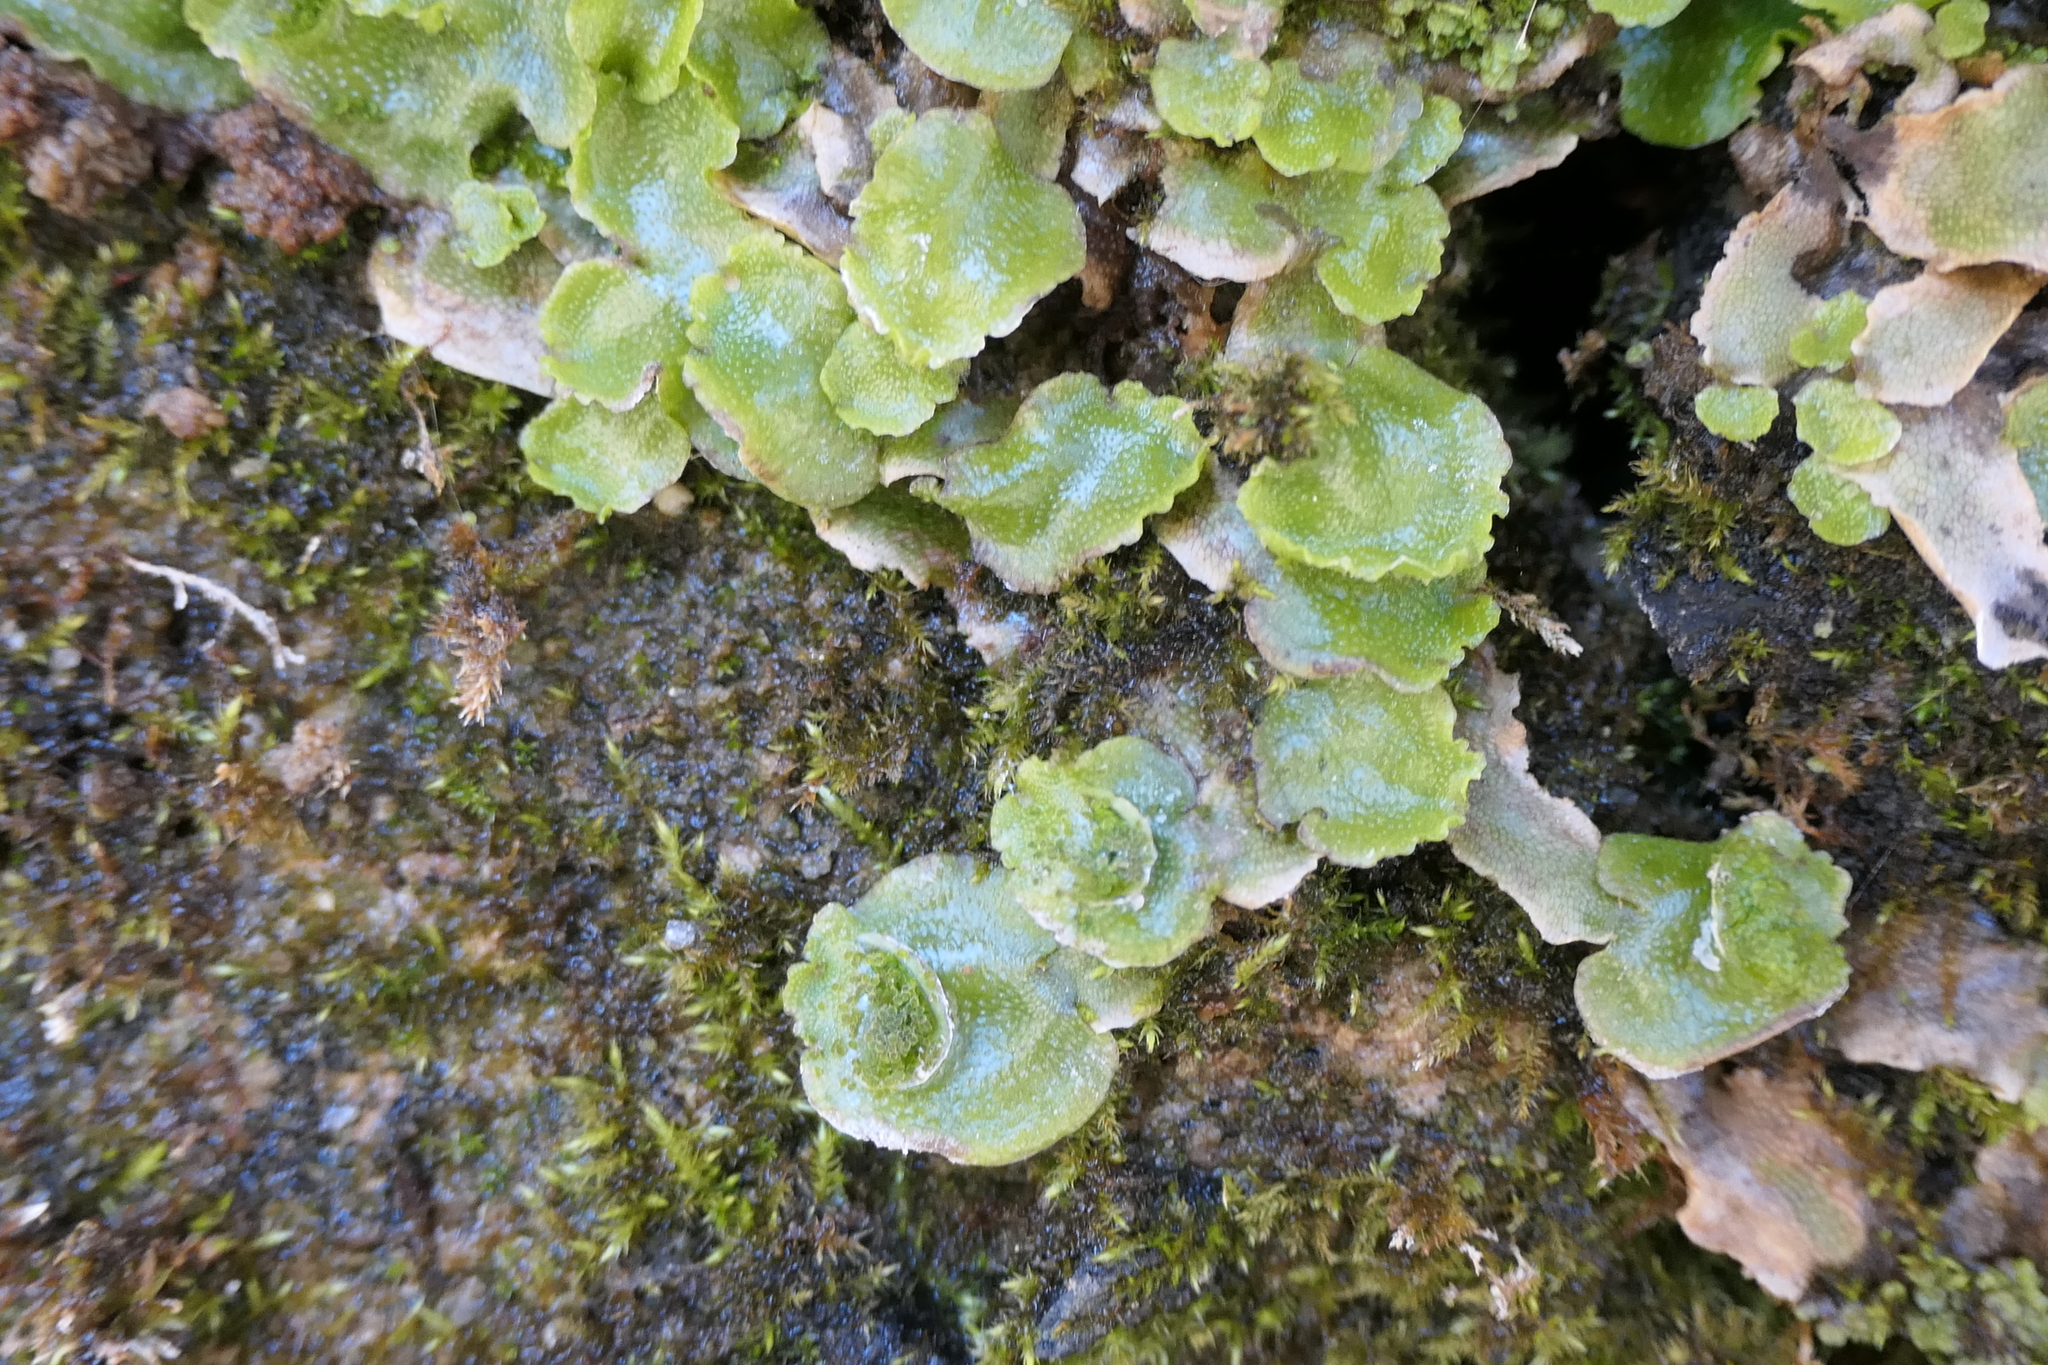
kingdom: Plantae
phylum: Marchantiophyta
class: Marchantiopsida
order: Lunulariales
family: Lunulariaceae
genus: Lunularia
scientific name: Lunularia cruciata
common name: Crescent-cup liverwort
